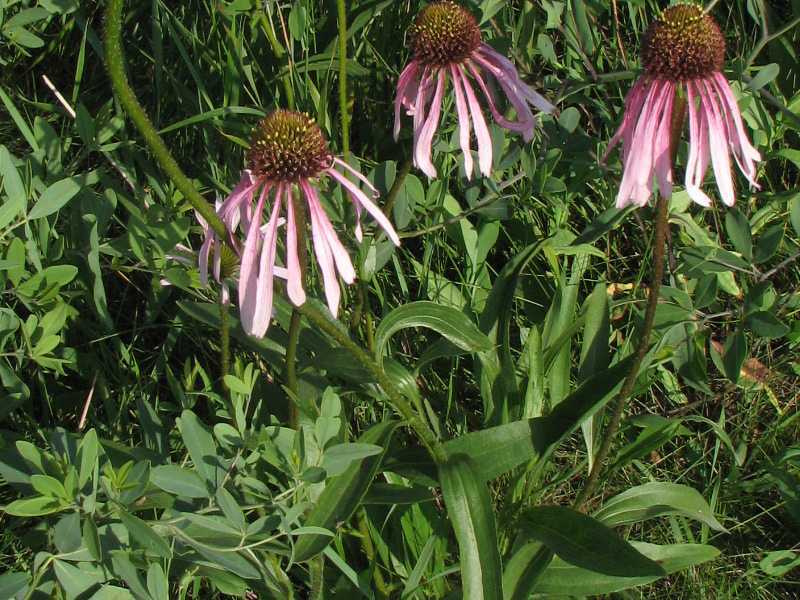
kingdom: Plantae
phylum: Tracheophyta
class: Magnoliopsida
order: Asterales
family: Asteraceae
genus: Echinacea
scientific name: Echinacea pallida
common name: Pale echinacea
